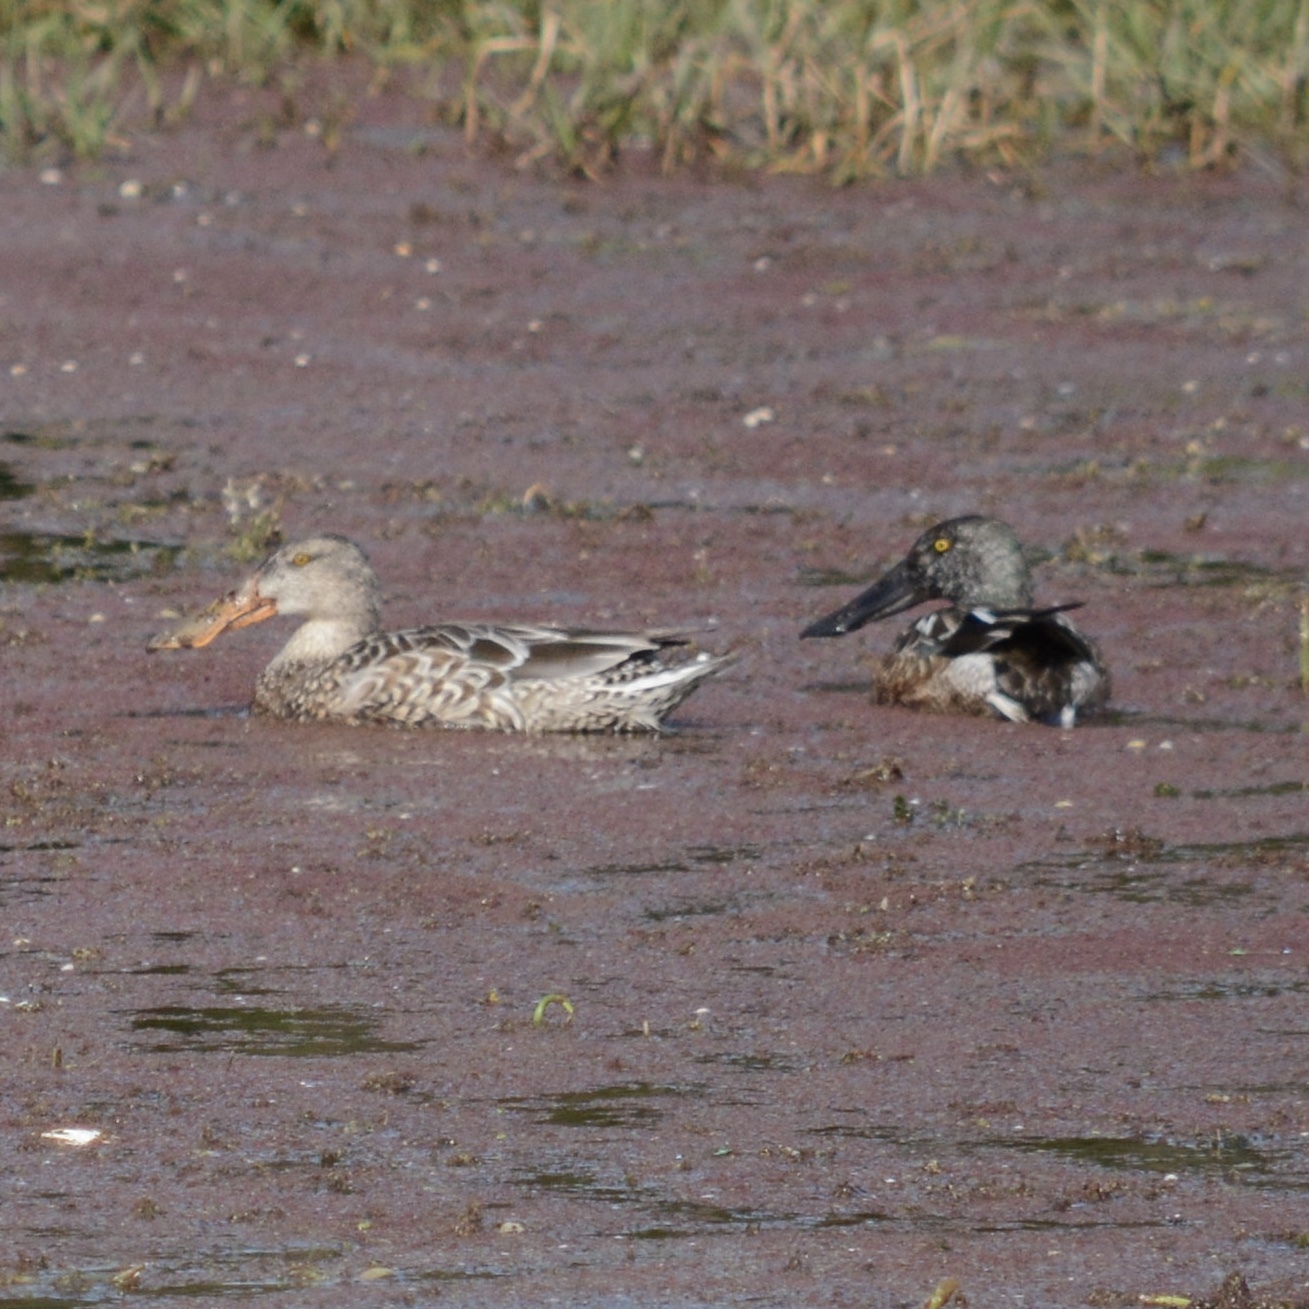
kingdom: Animalia
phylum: Chordata
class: Aves
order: Anseriformes
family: Anatidae
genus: Spatula
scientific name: Spatula clypeata
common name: Northern shoveler
